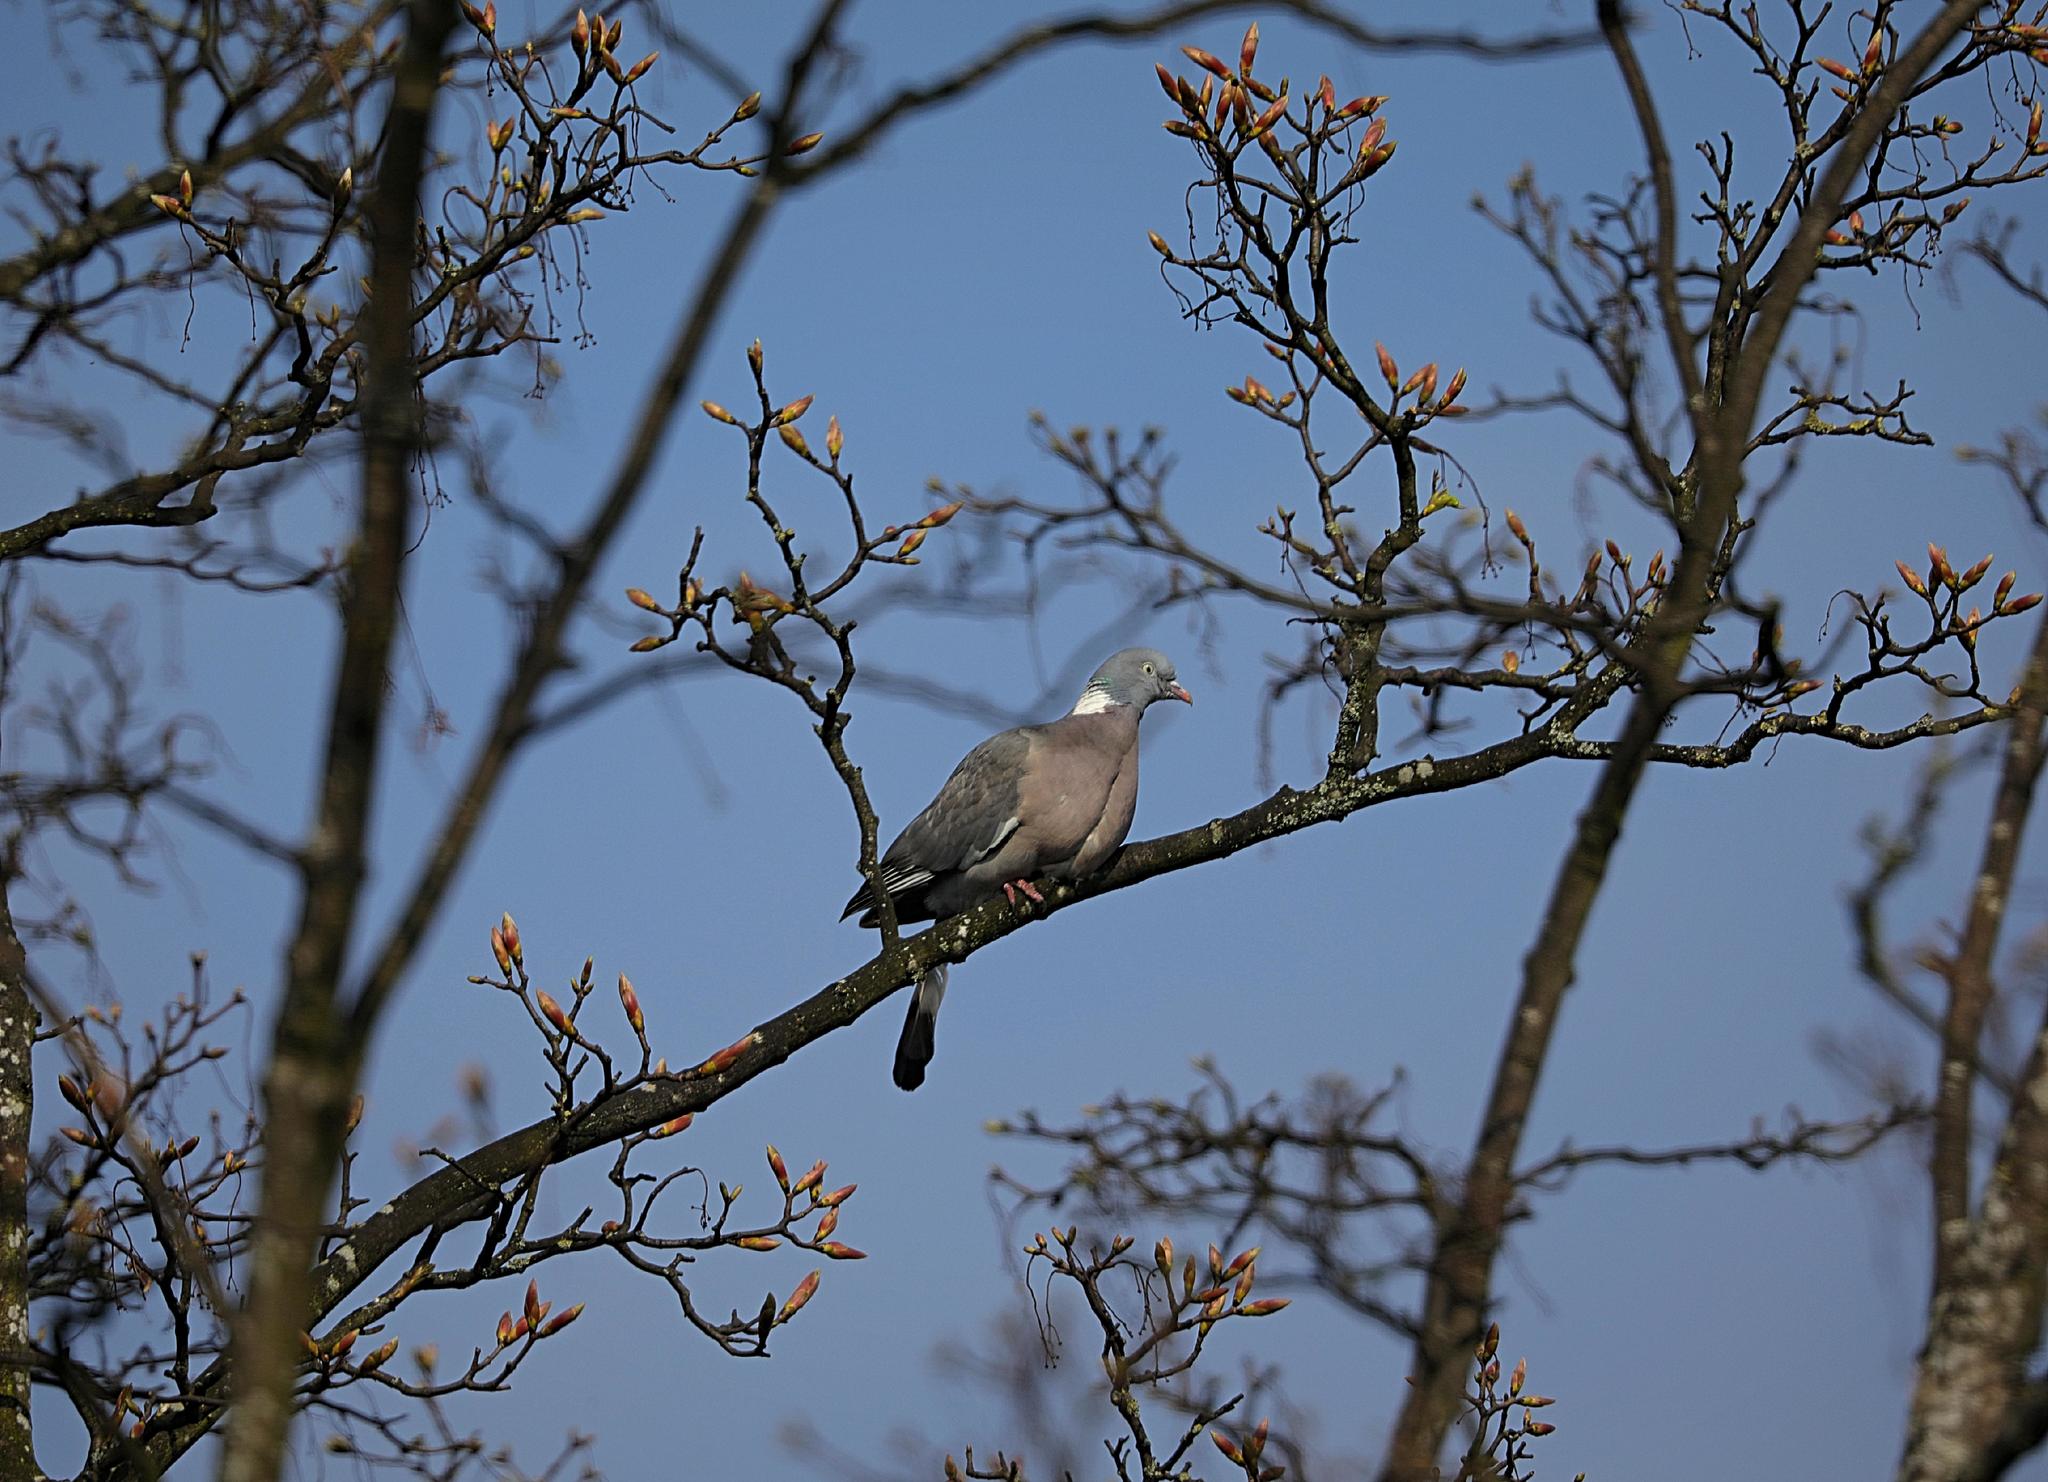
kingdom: Animalia
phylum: Chordata
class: Aves
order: Columbiformes
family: Columbidae
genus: Columba
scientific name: Columba palumbus
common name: Common wood pigeon
